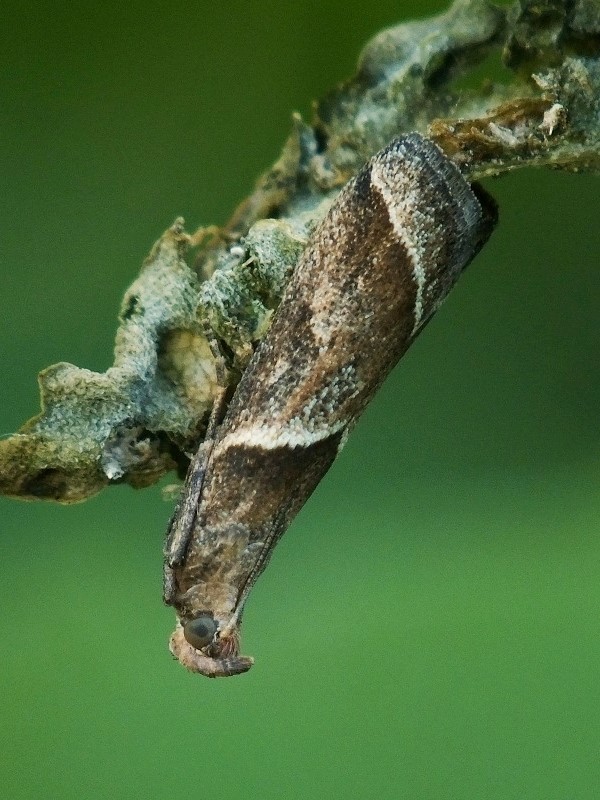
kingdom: Animalia
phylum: Arthropoda
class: Insecta
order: Lepidoptera
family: Pyralidae
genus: Nyctegretis
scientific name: Nyctegretis lineana
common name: Agate knot-horn
